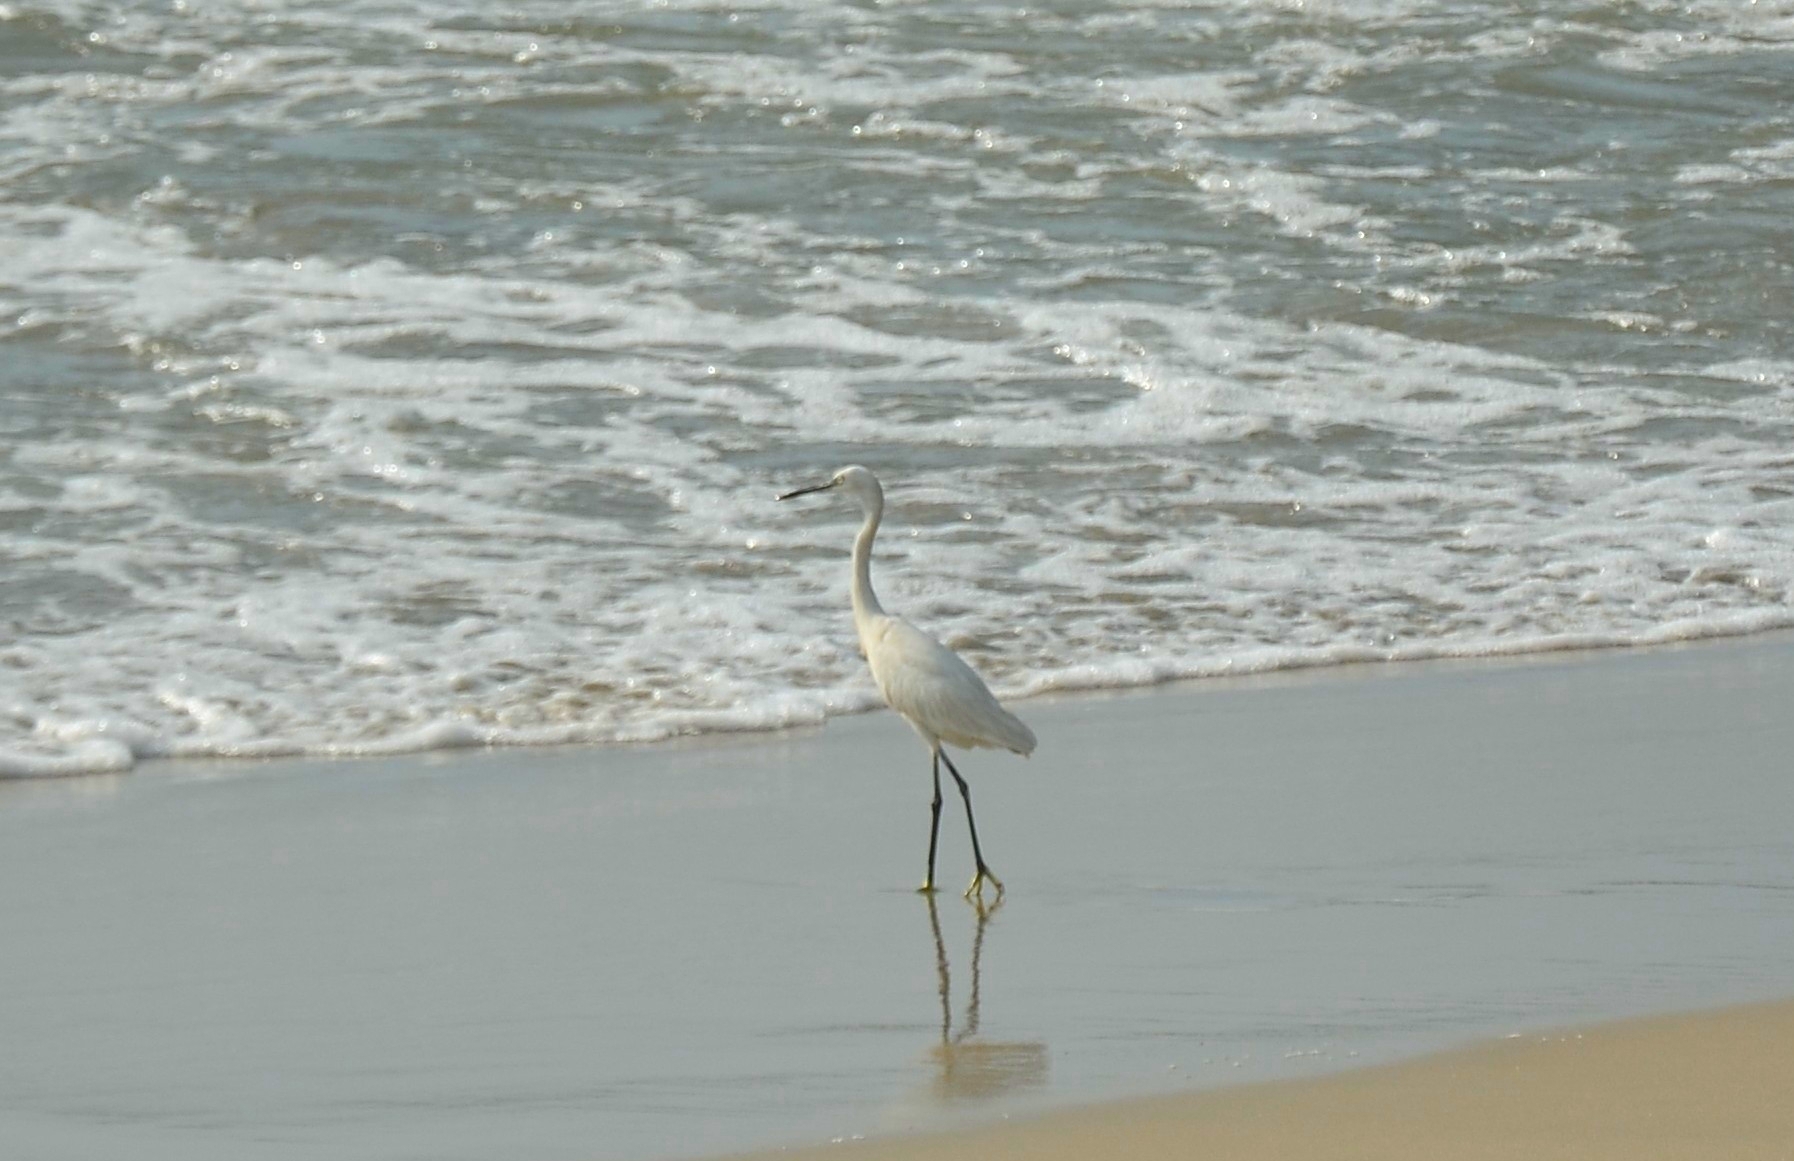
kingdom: Animalia
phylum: Chordata
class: Aves
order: Pelecaniformes
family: Ardeidae
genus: Egretta
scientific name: Egretta garzetta
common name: Little egret
